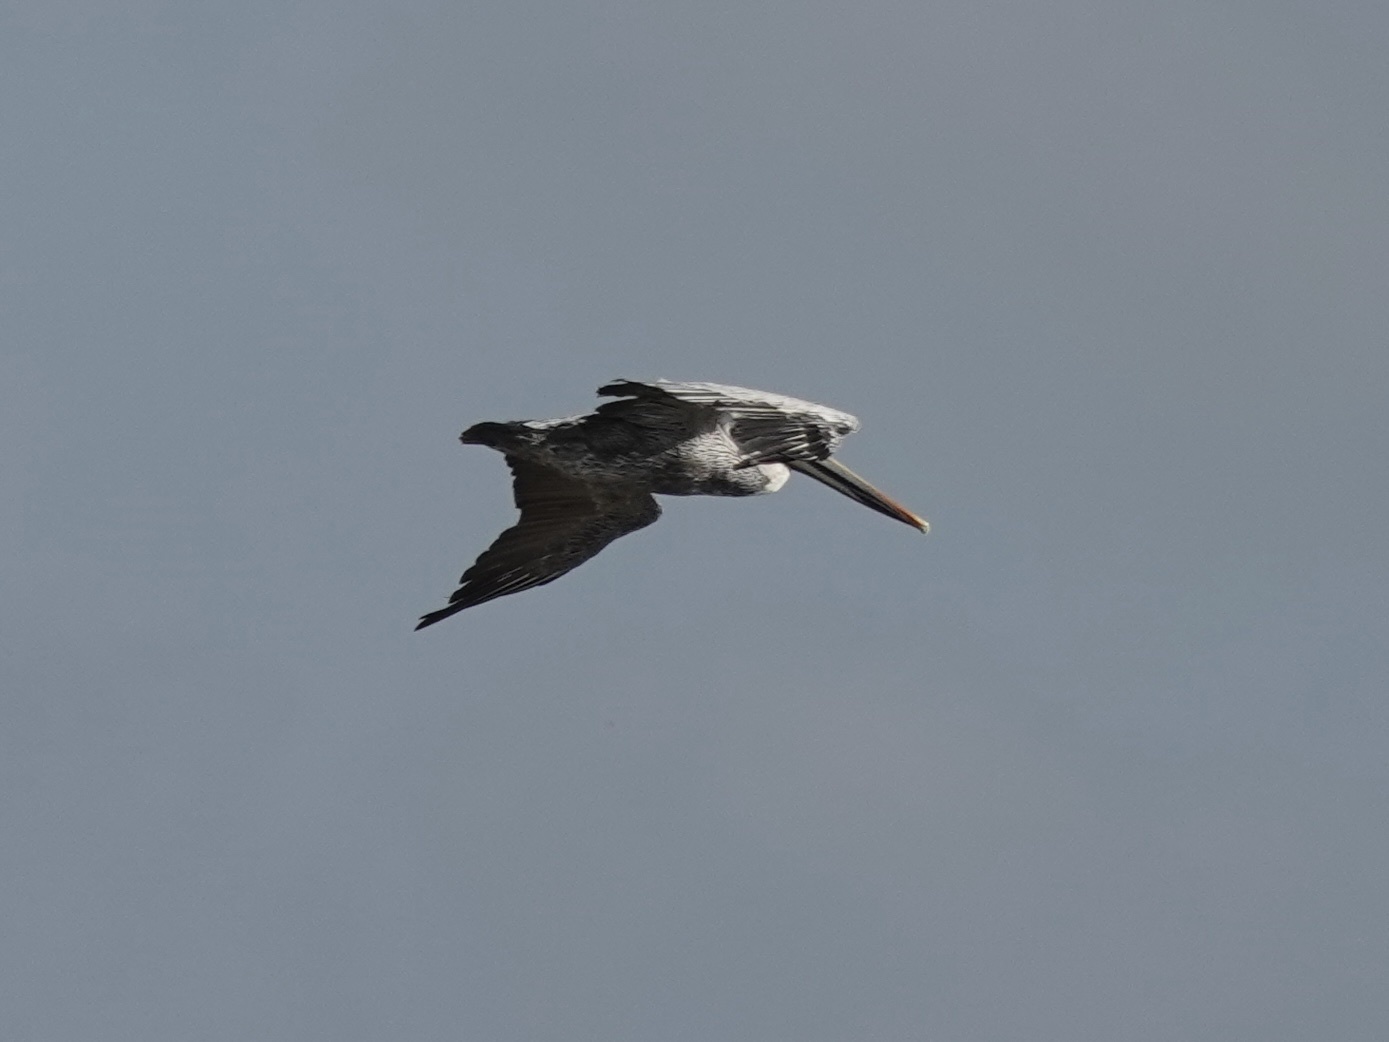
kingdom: Animalia
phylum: Chordata
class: Aves
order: Pelecaniformes
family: Pelecanidae
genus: Pelecanus
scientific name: Pelecanus occidentalis
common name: Brown pelican
